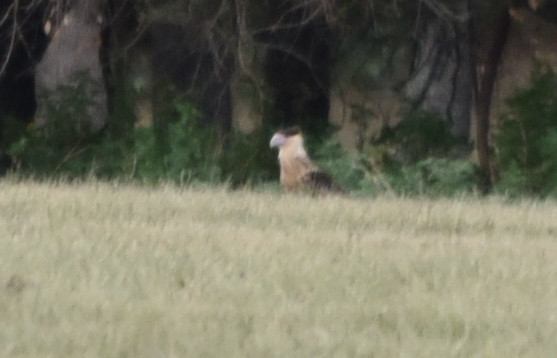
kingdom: Animalia
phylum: Chordata
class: Aves
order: Falconiformes
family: Falconidae
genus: Caracara
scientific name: Caracara plancus
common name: Southern caracara
